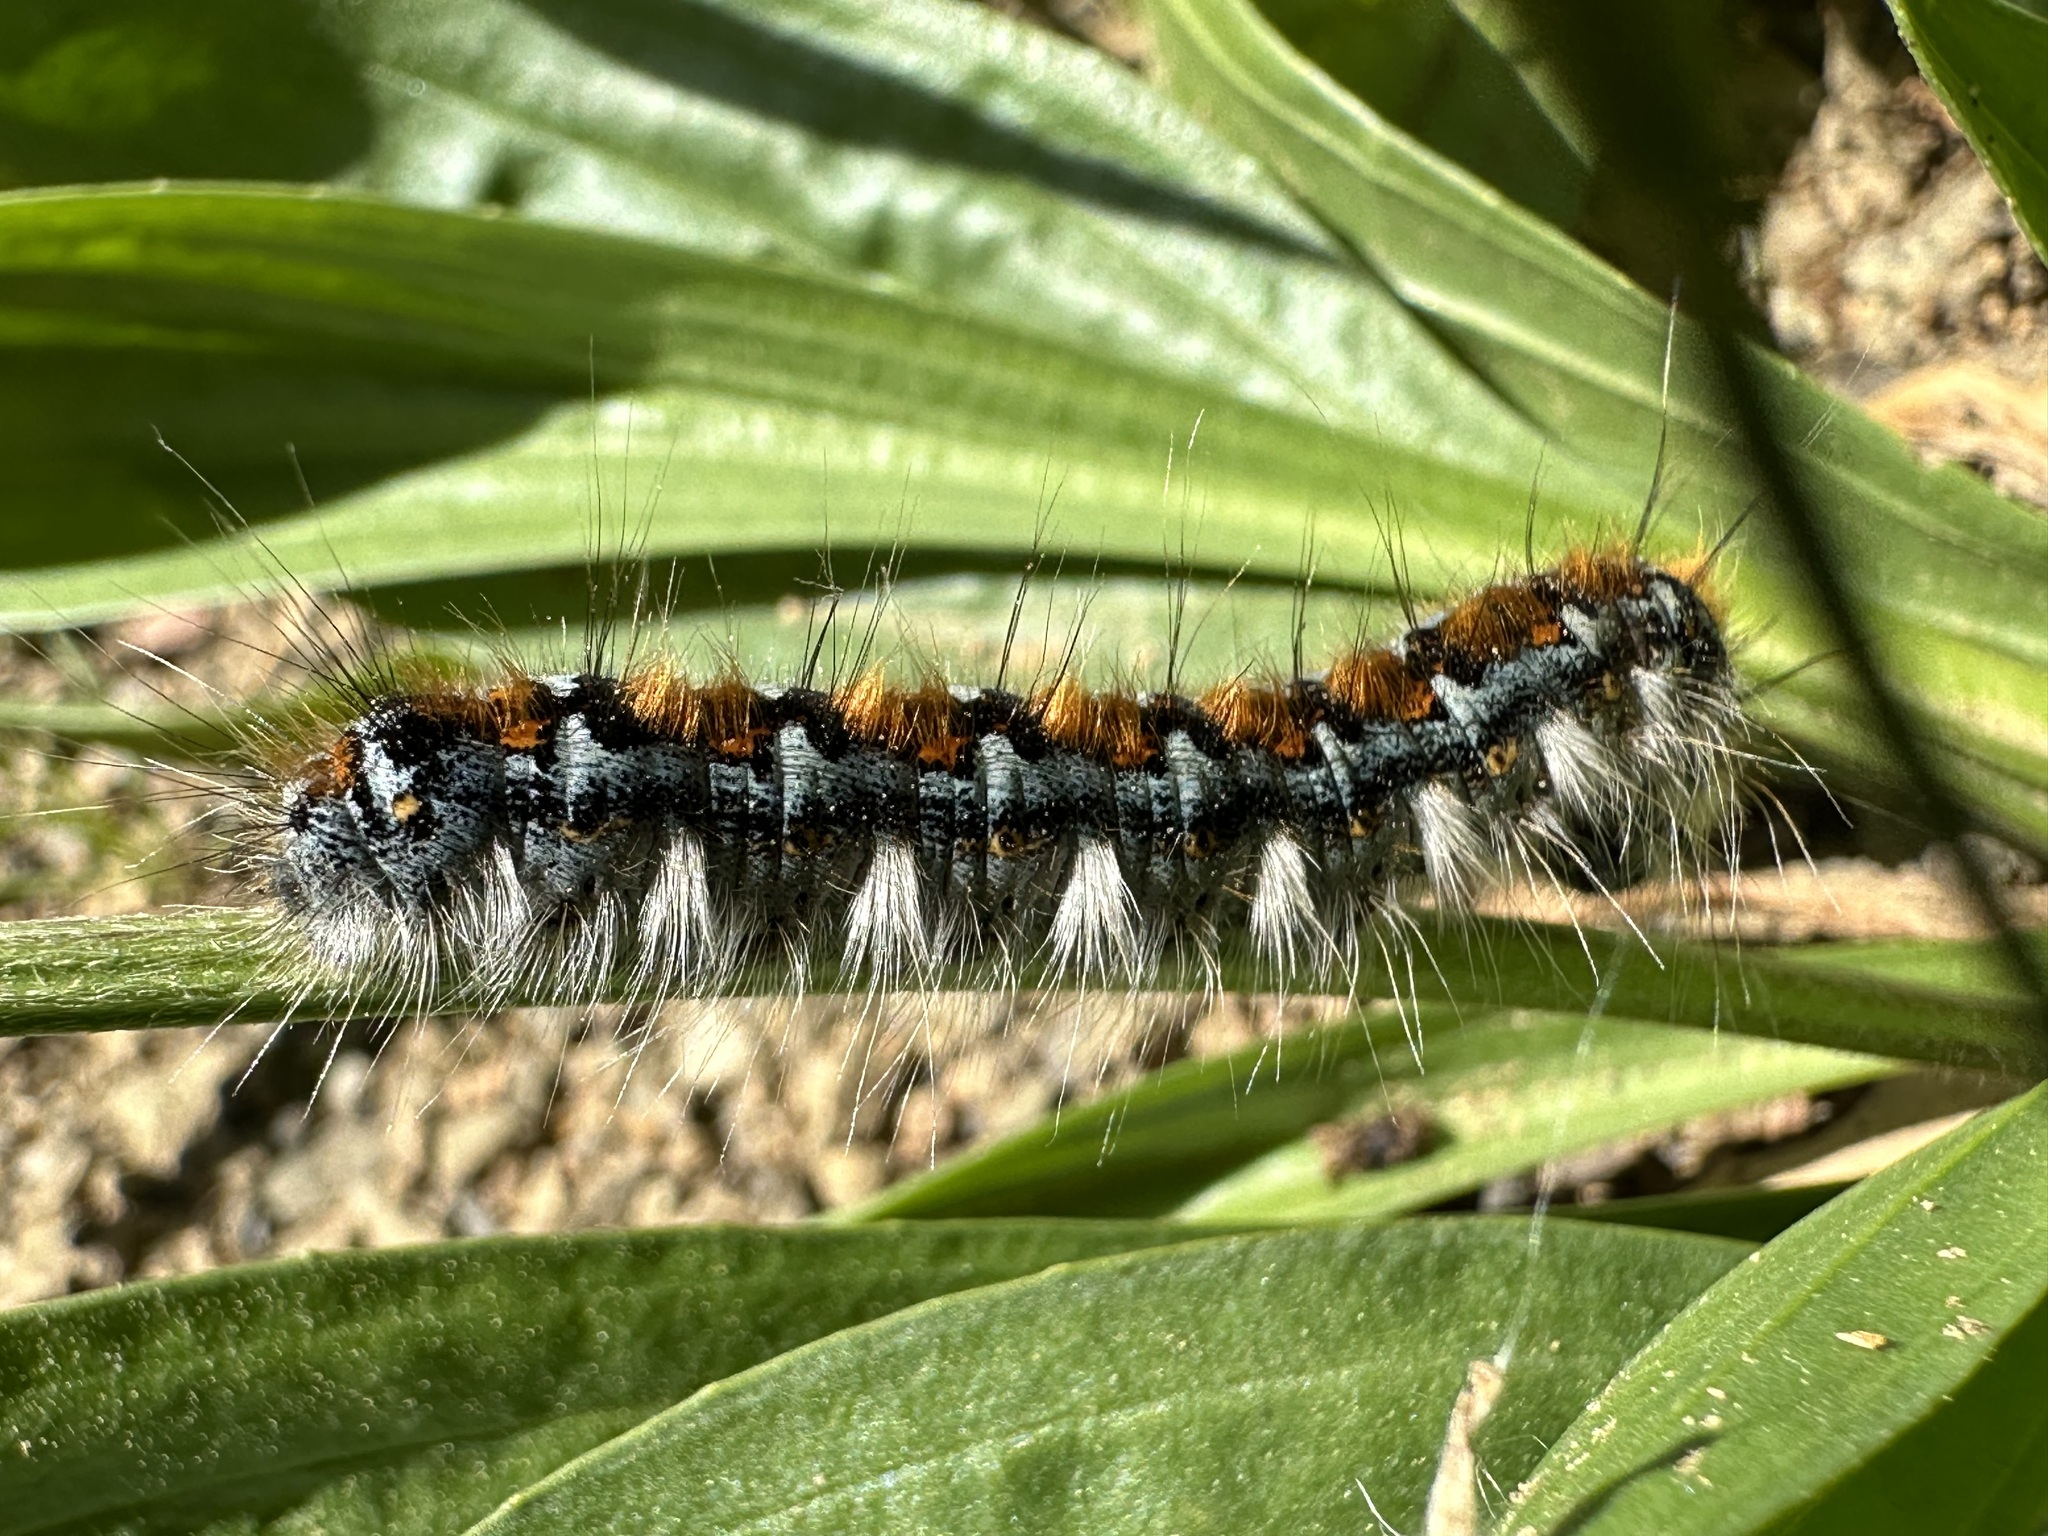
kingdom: Animalia
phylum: Arthropoda
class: Insecta
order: Lepidoptera
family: Lasiocampidae
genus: Malacosoma
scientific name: Malacosoma constricta
